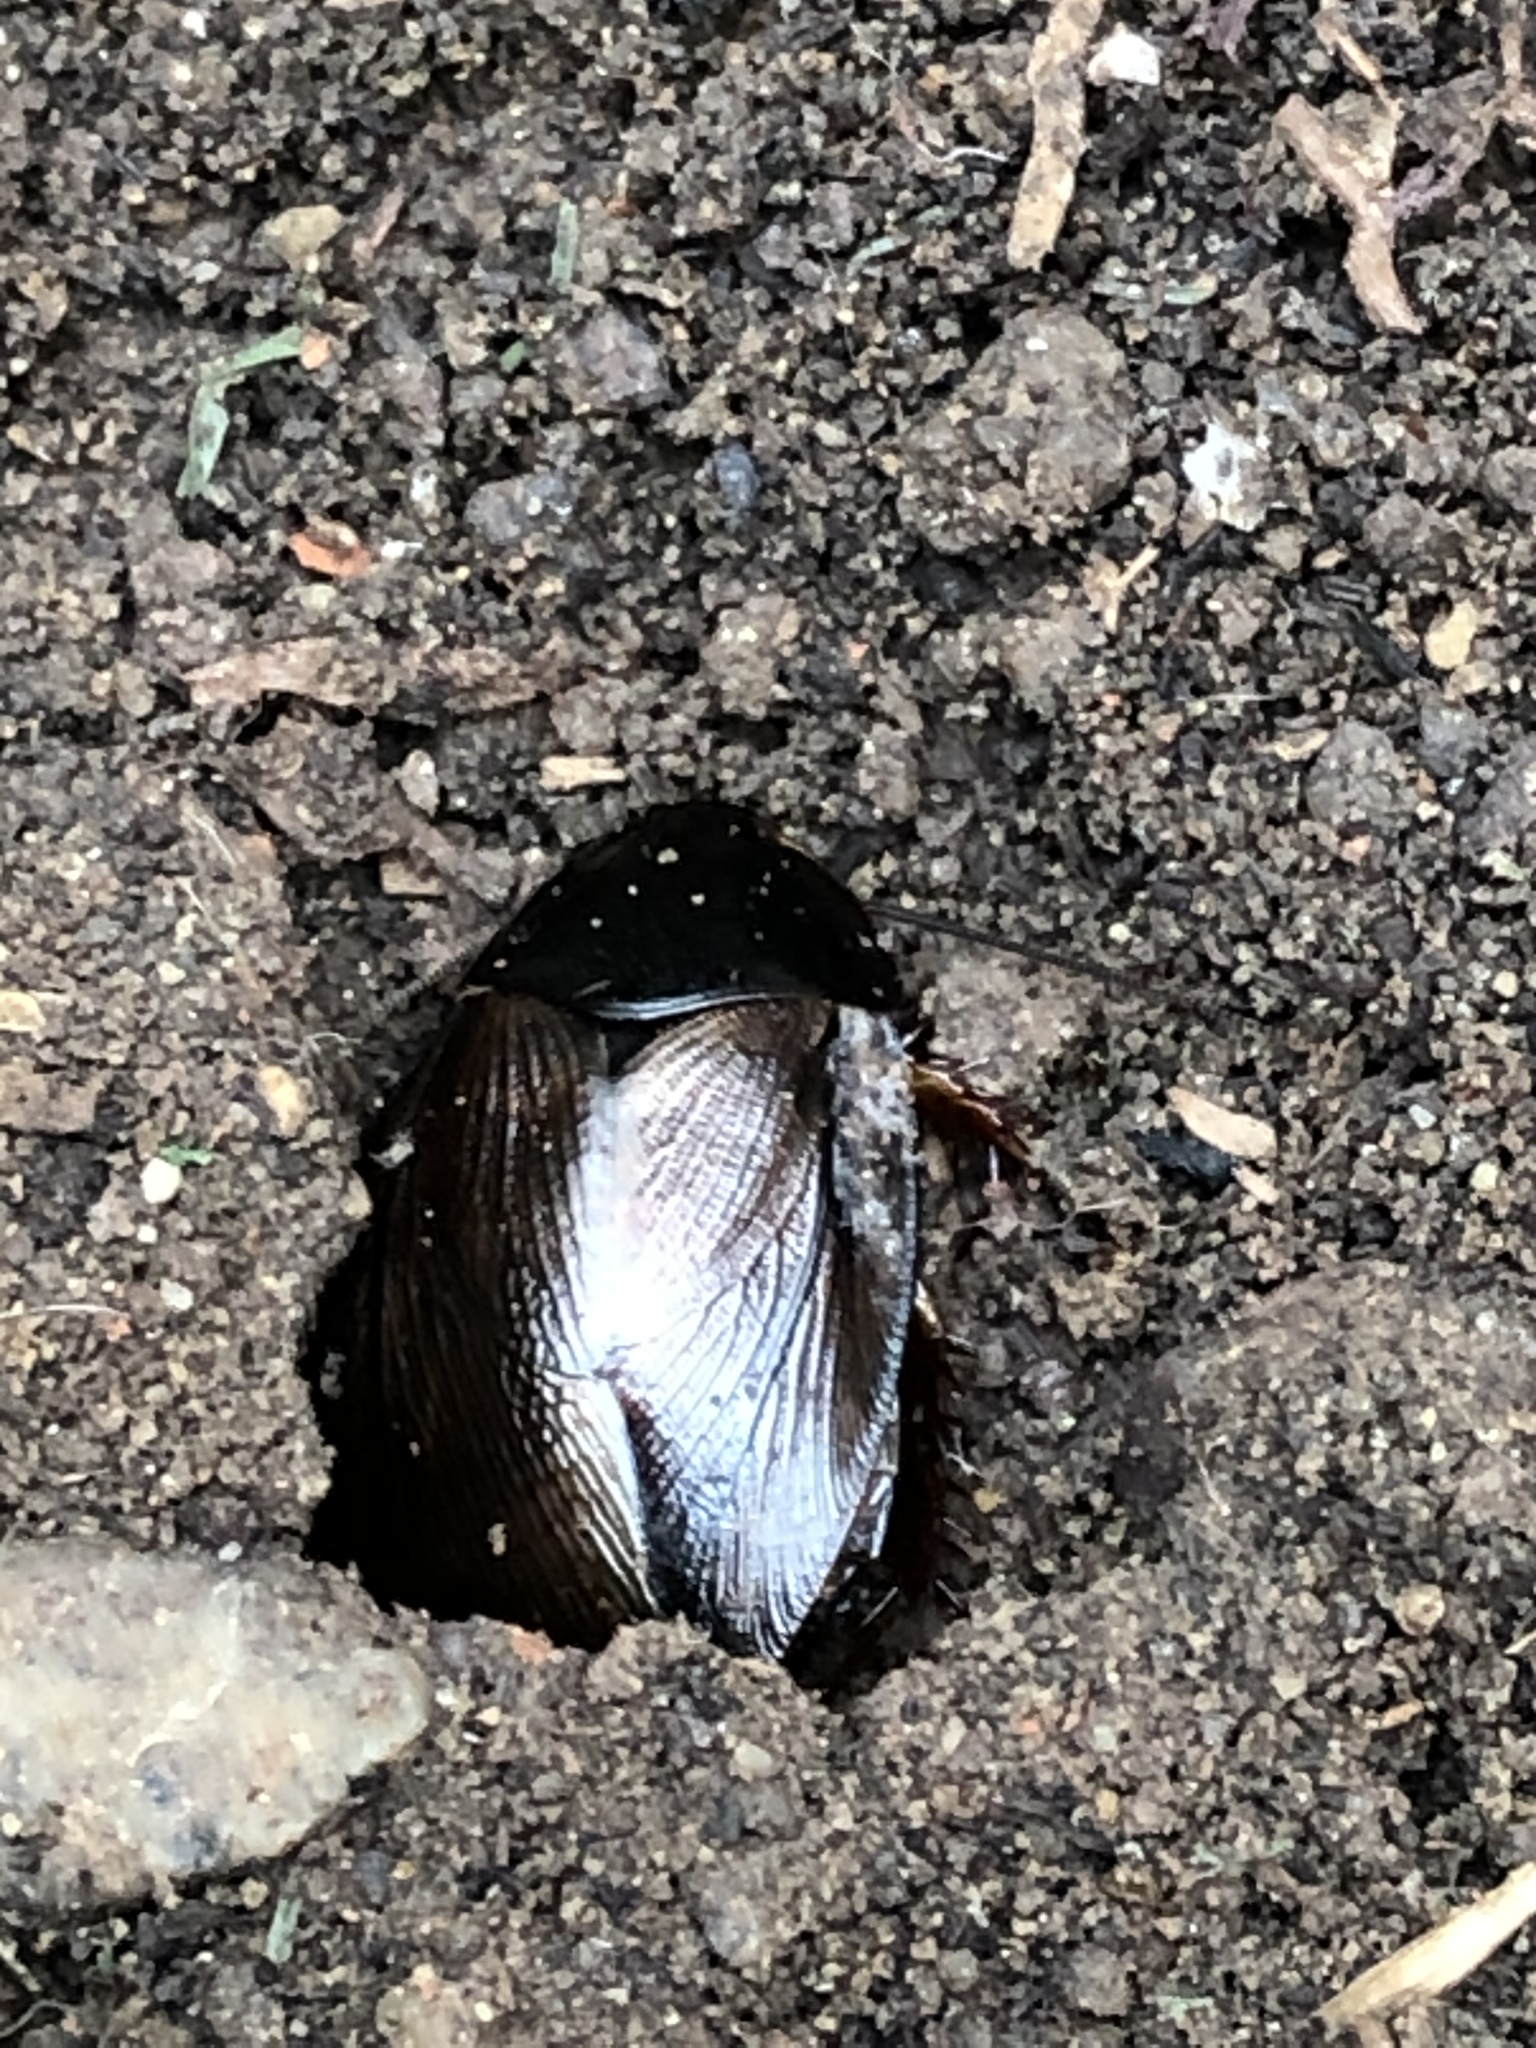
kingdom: Animalia
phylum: Arthropoda
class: Insecta
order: Blattodea
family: Blaberidae
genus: Pycnoscelus
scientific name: Pycnoscelus surinamensis
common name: Surinam cockroach
